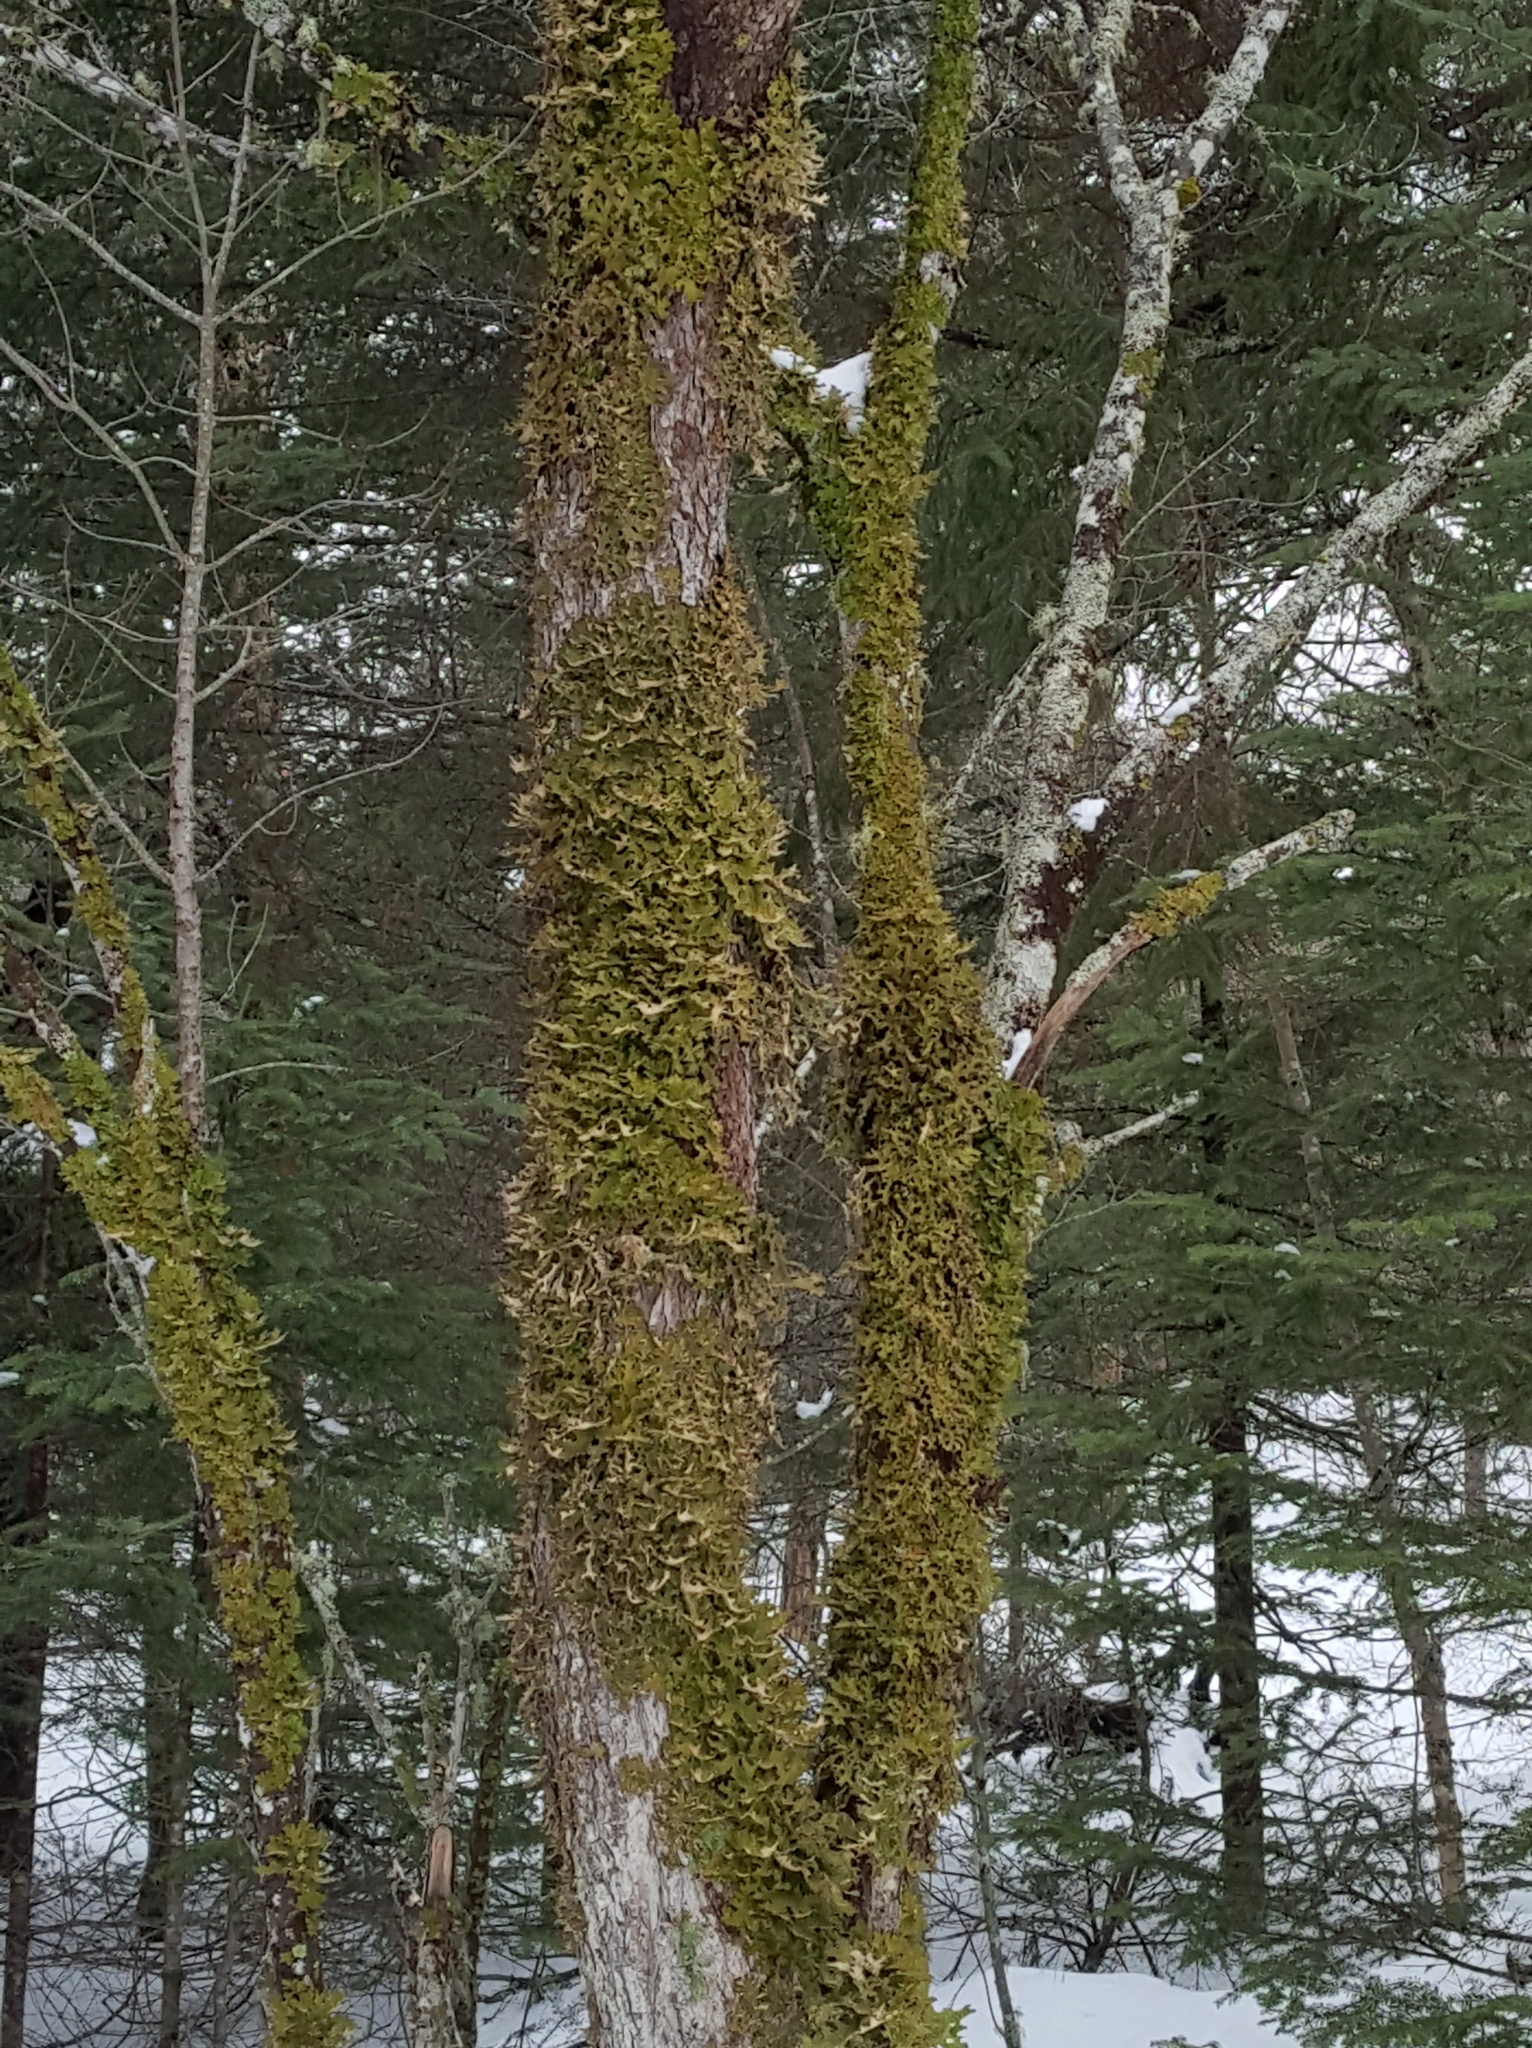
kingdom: Fungi
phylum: Ascomycota
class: Lecanoromycetes
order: Peltigerales
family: Lobariaceae
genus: Lobaria
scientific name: Lobaria pulmonaria
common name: Lungwort
